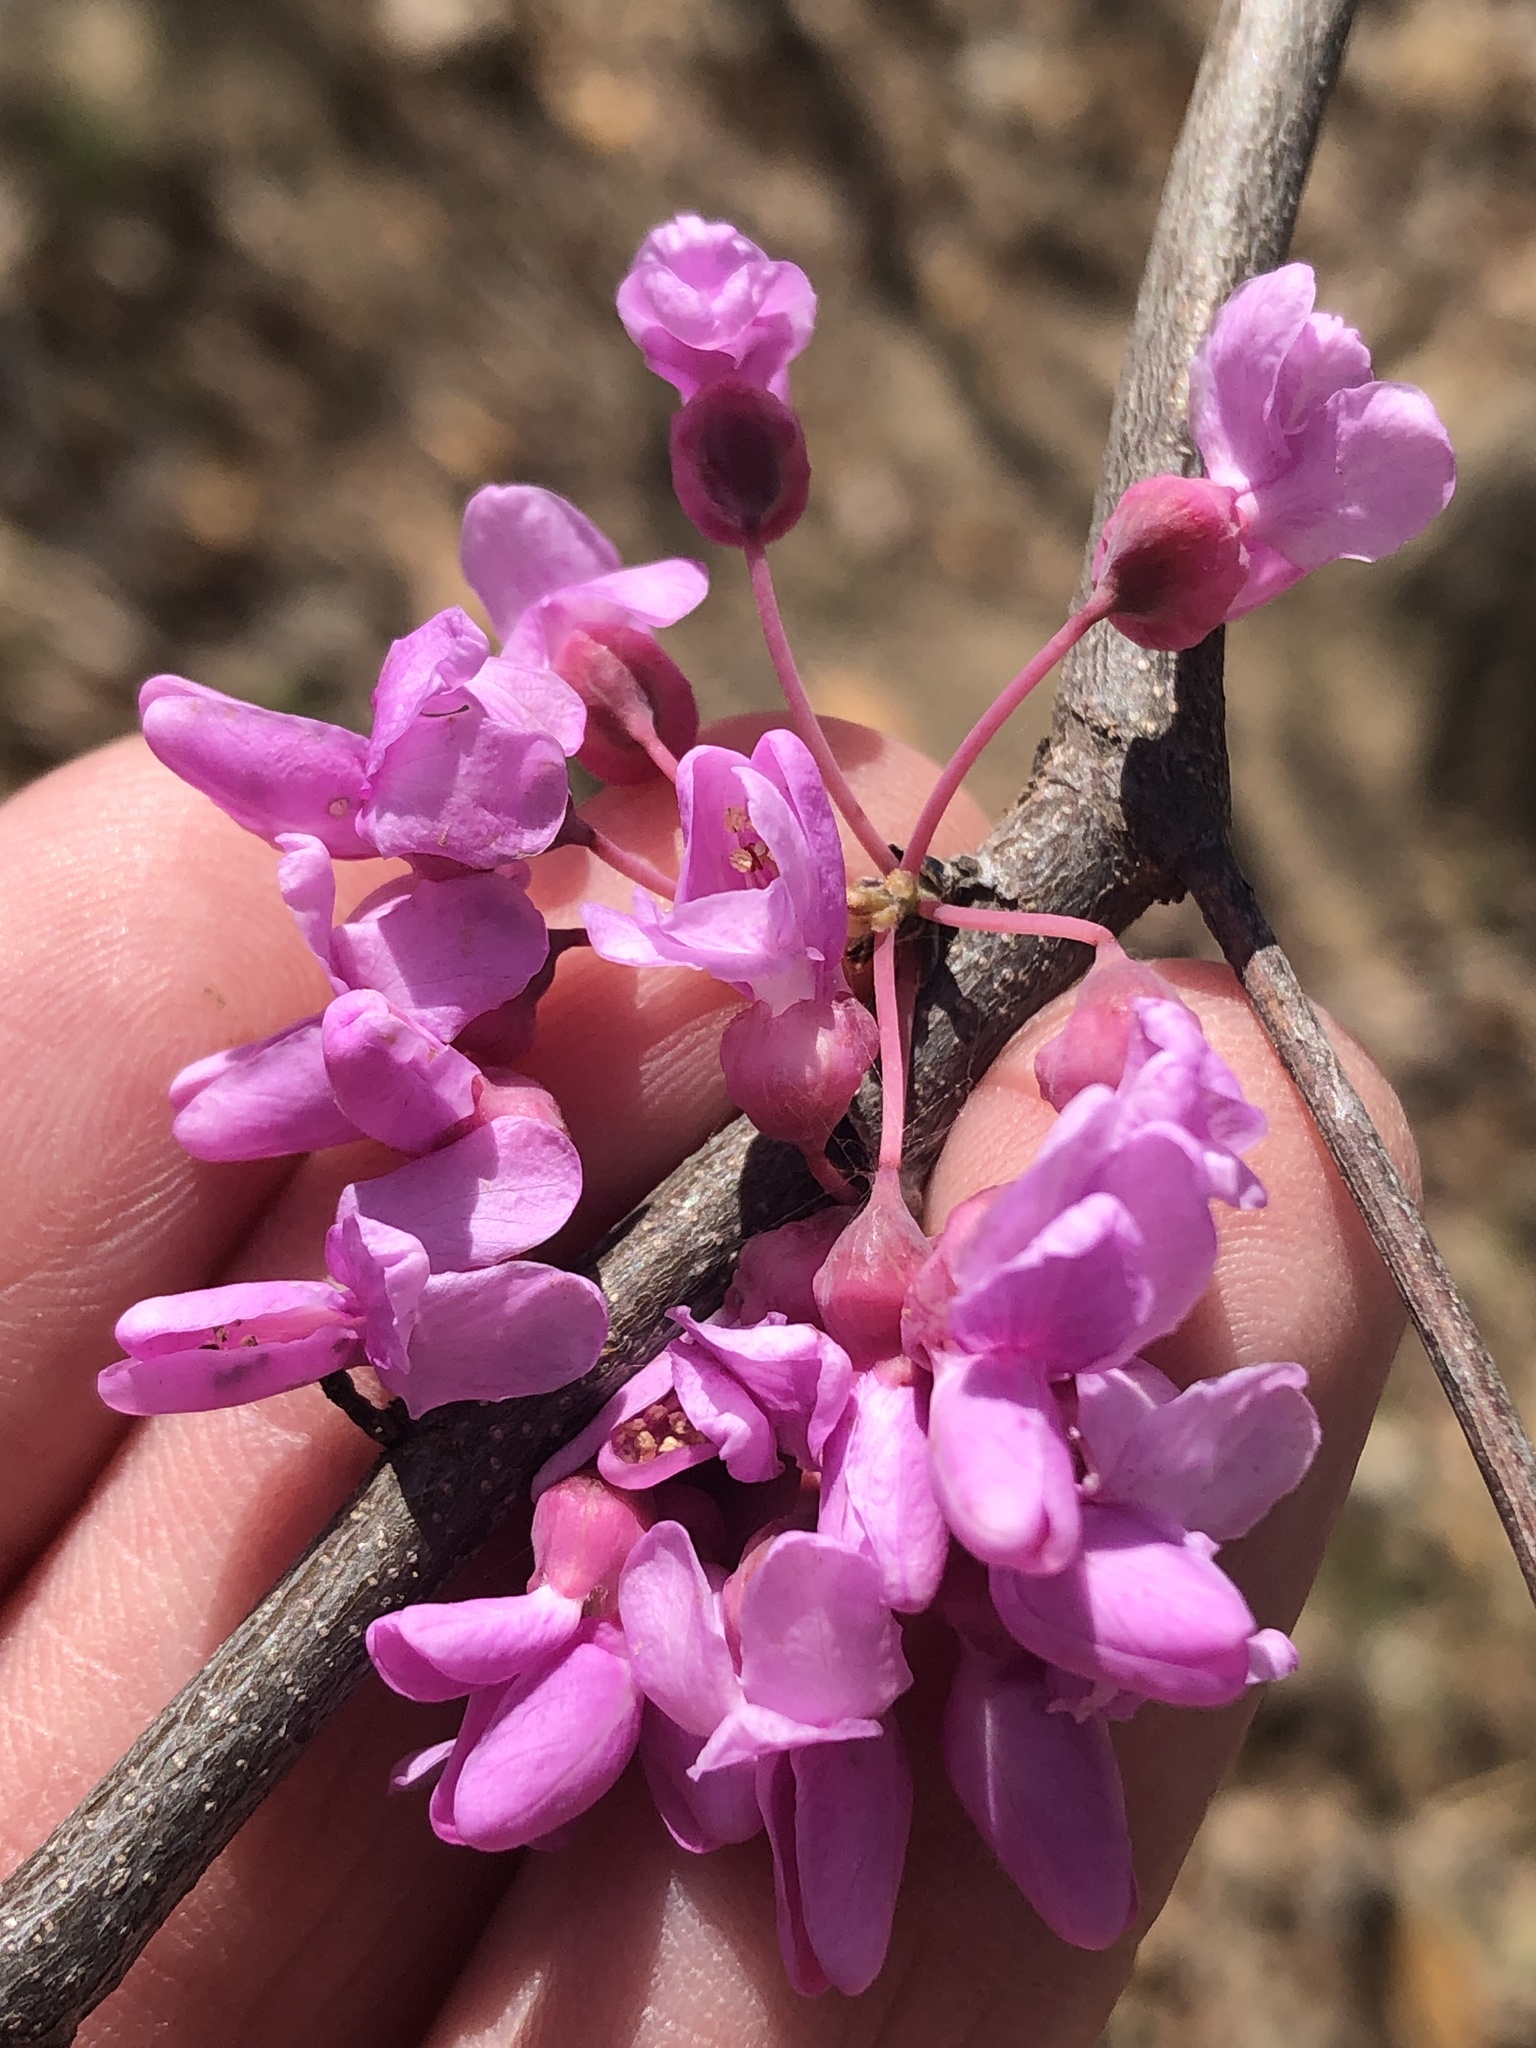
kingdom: Plantae
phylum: Tracheophyta
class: Magnoliopsida
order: Fabales
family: Fabaceae
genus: Cercis
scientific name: Cercis canadensis
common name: Eastern redbud
